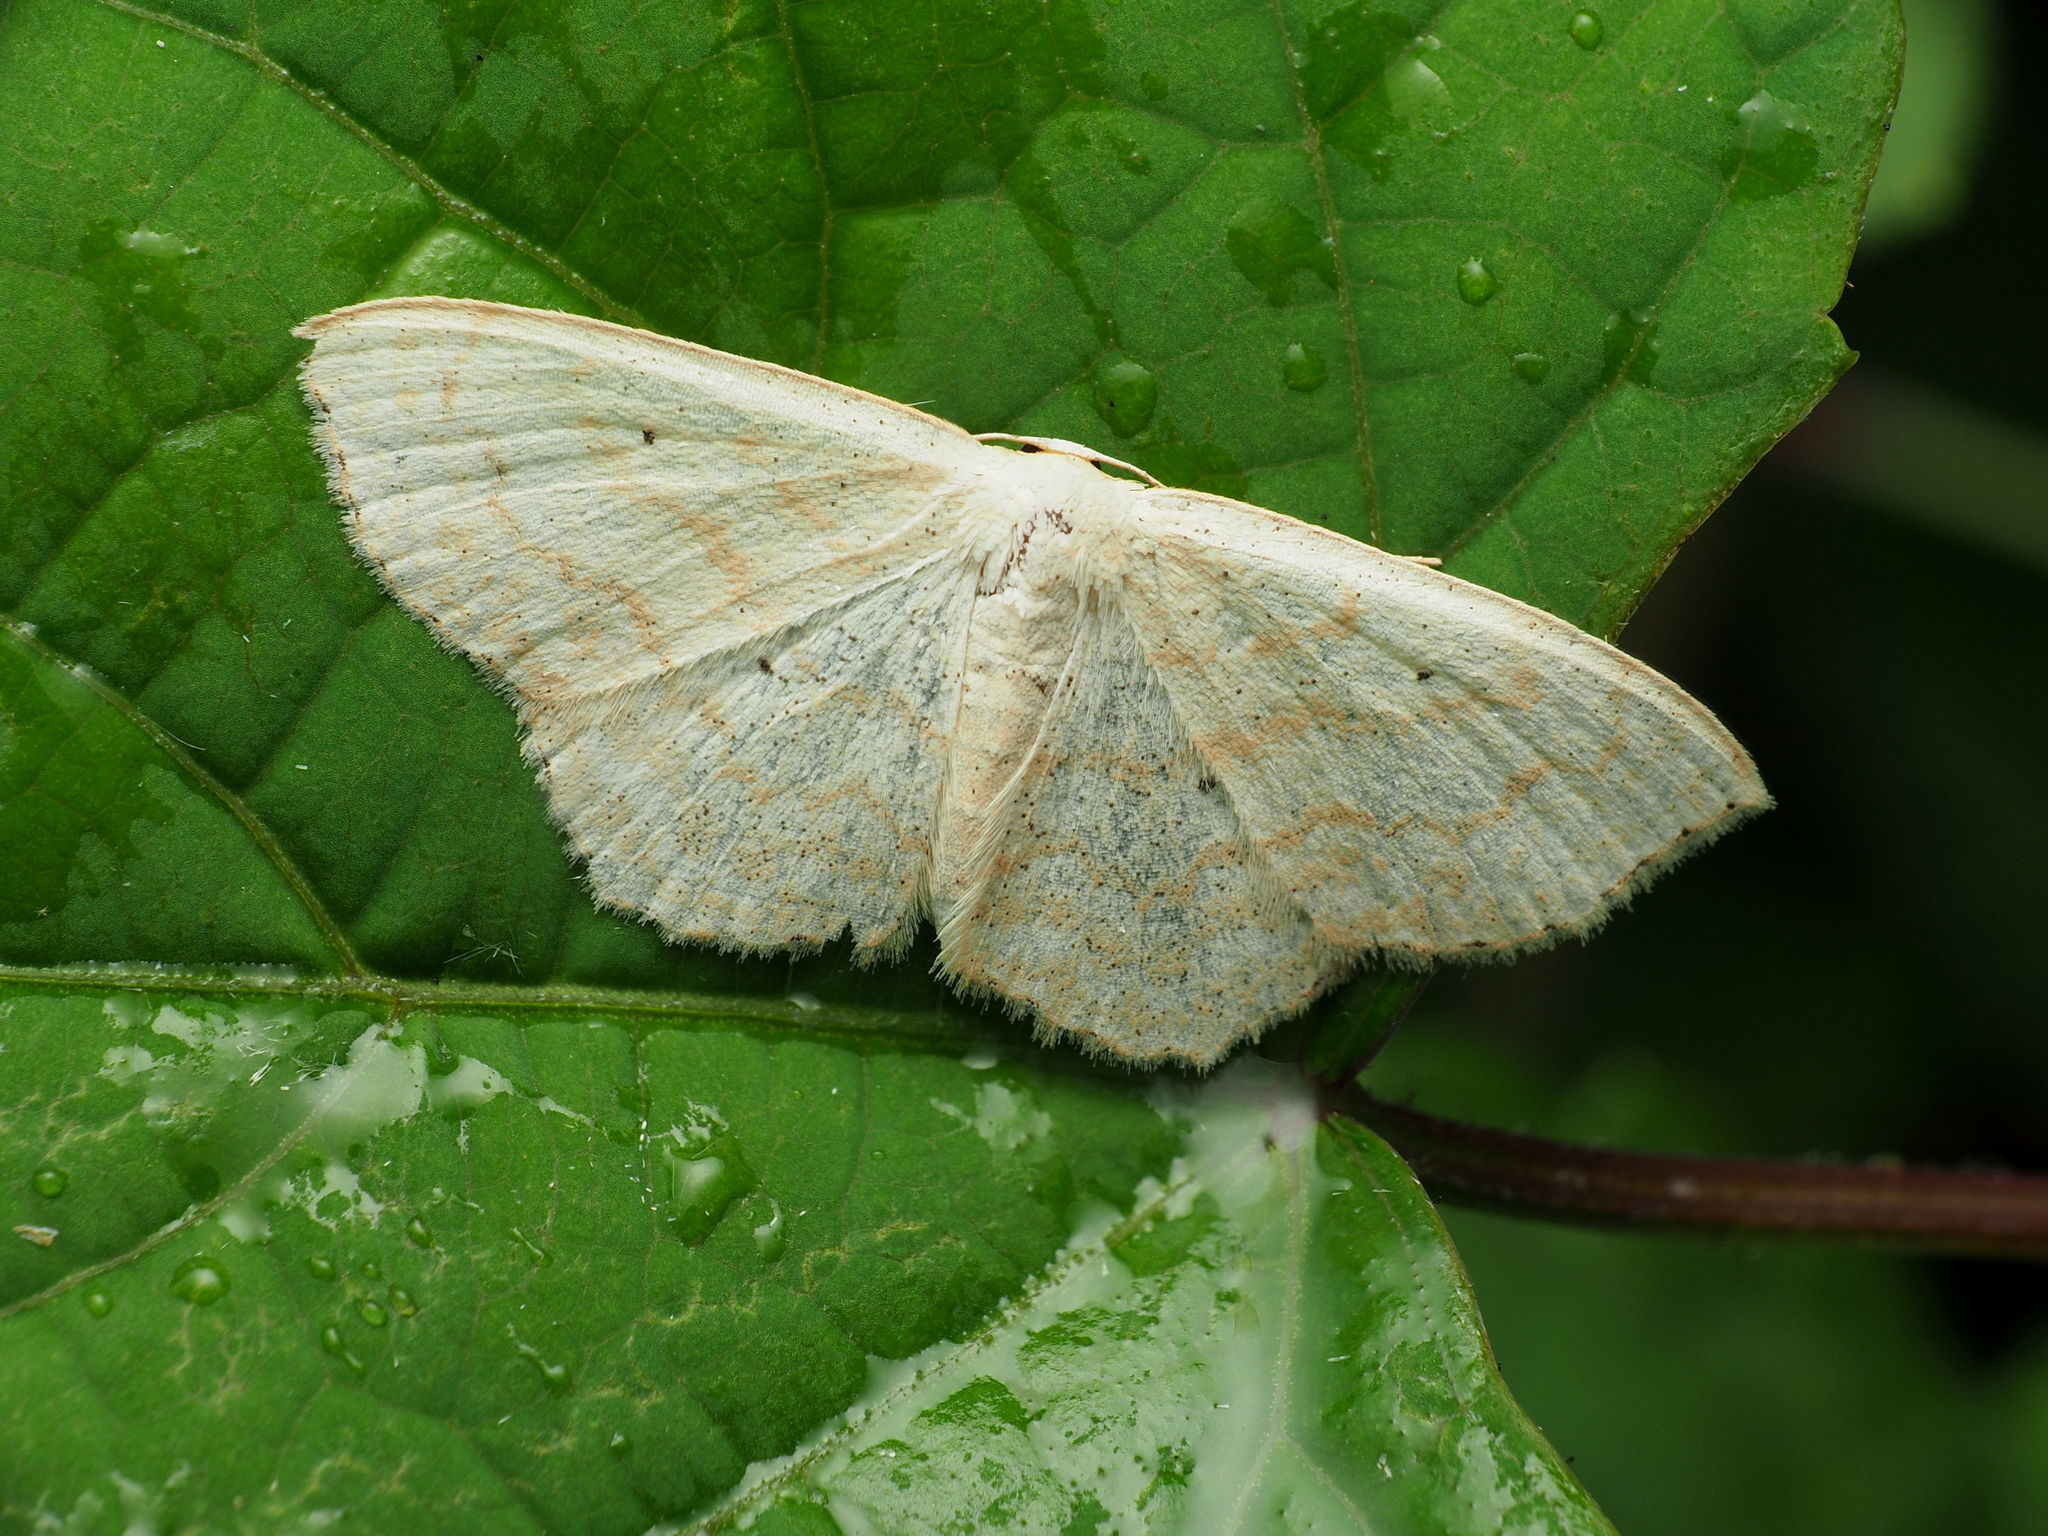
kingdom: Animalia
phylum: Arthropoda
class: Insecta
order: Lepidoptera
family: Geometridae
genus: Scopula
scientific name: Scopula limboundata
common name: Large lace border
